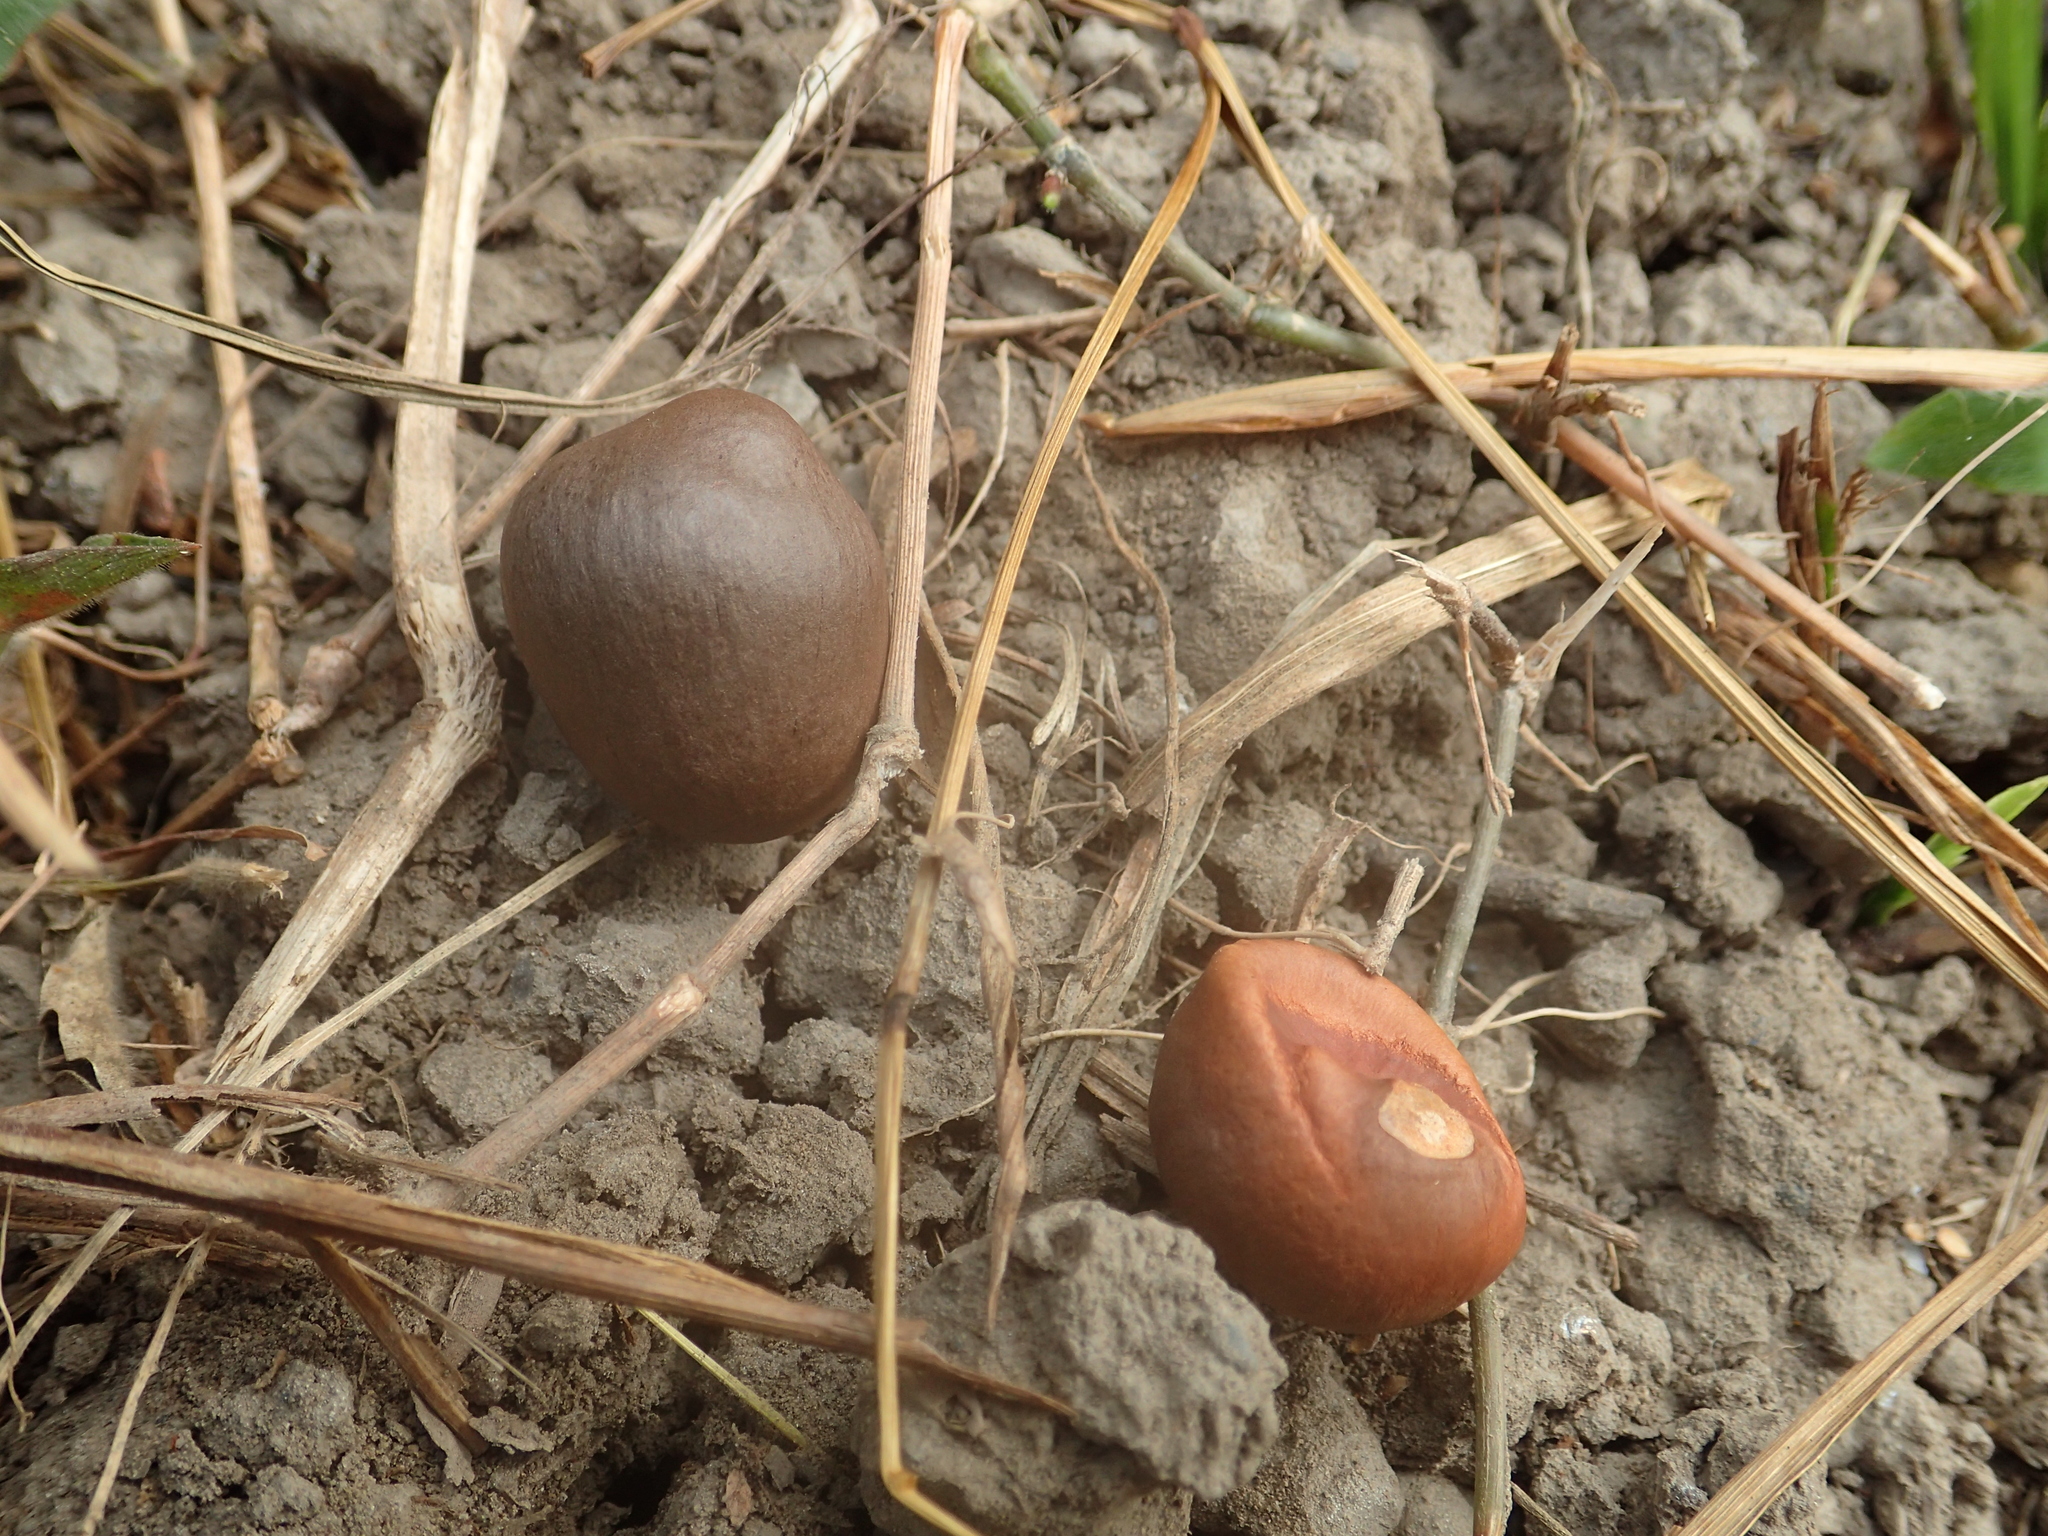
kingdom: Plantae
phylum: Tracheophyta
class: Magnoliopsida
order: Ericales
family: Theaceae
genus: Camellia
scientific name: Camellia sinensis
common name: Tea
